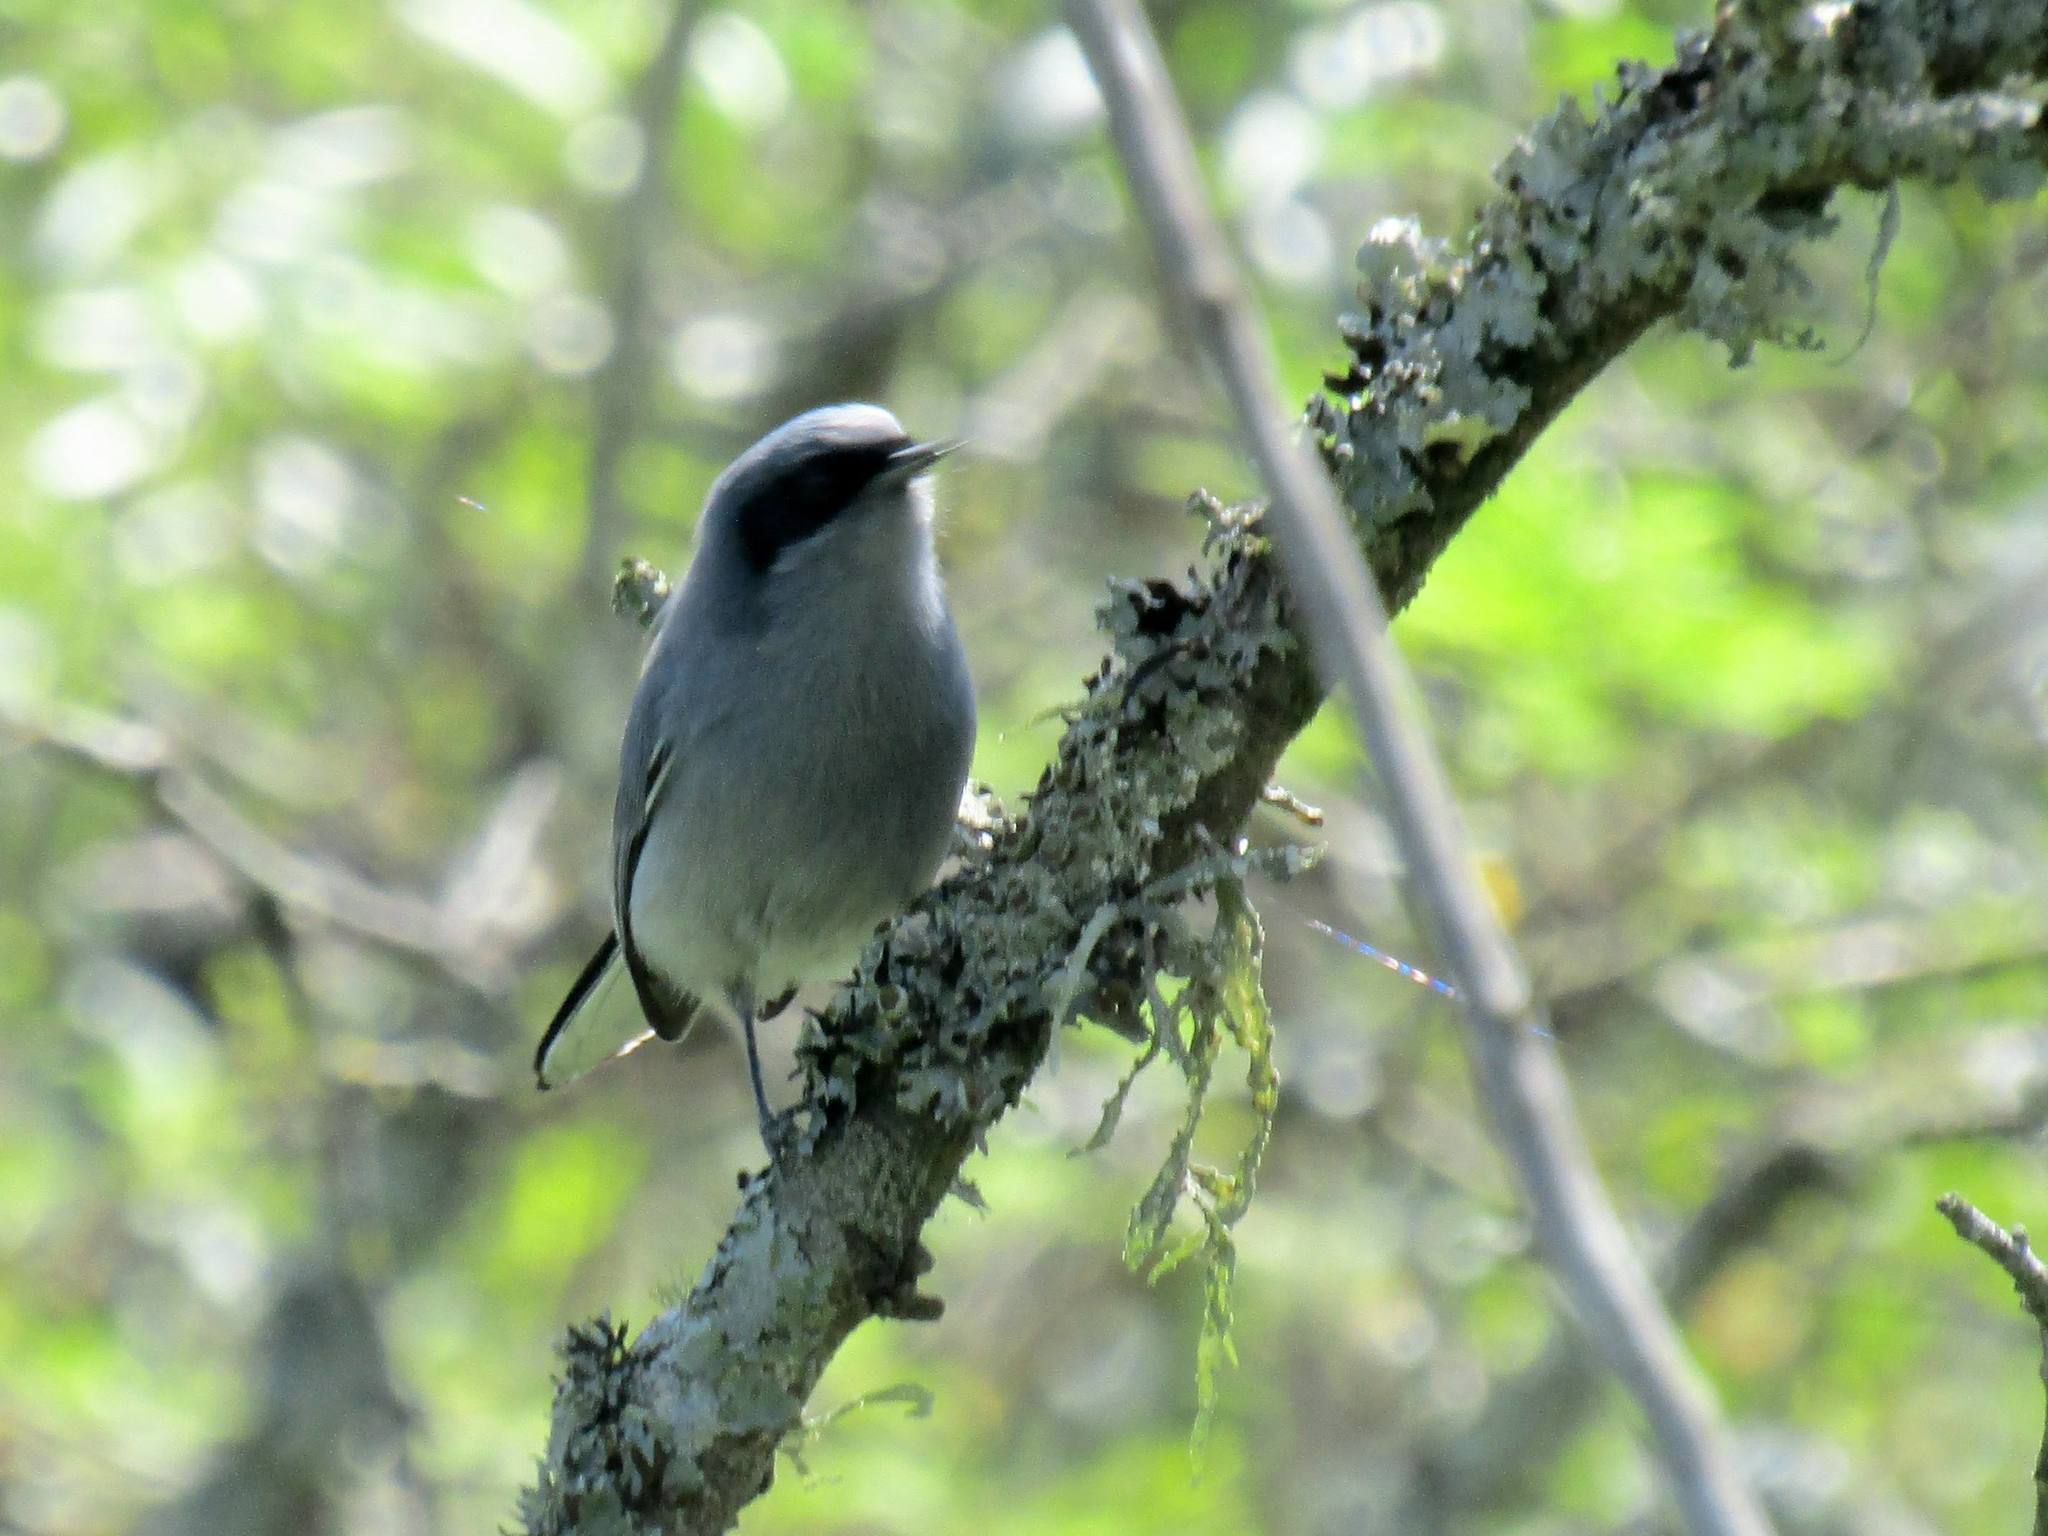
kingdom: Animalia
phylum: Chordata
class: Aves
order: Passeriformes
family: Polioptilidae
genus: Polioptila
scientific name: Polioptila dumicola
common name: Masked gnatcatcher
